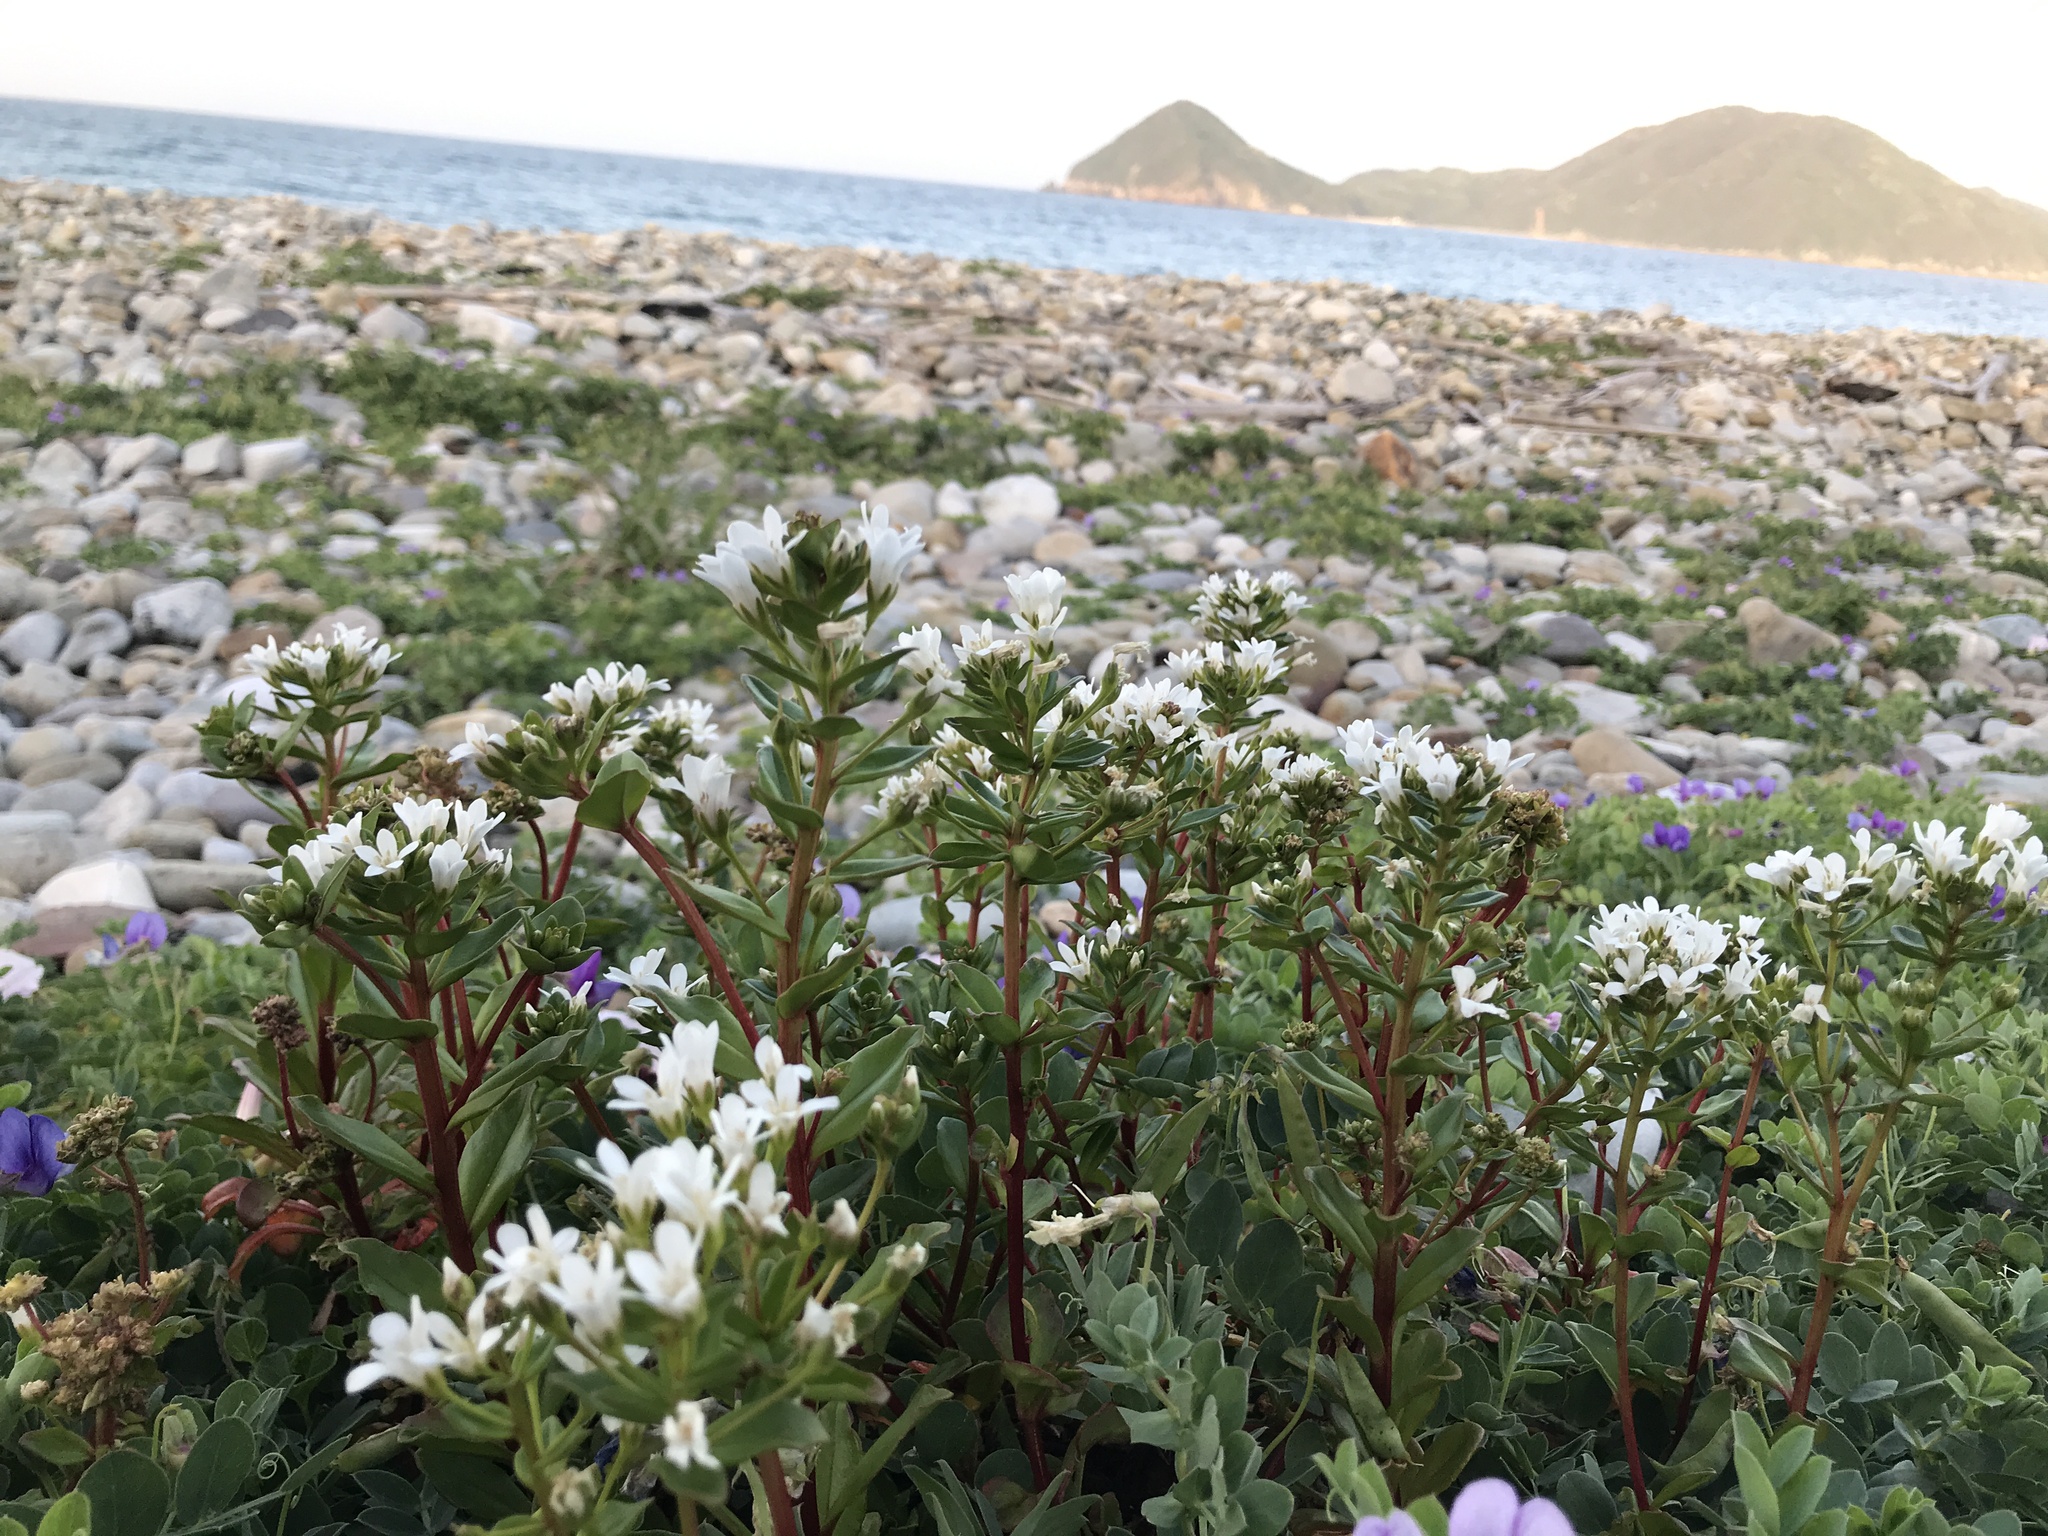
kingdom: Plantae
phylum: Tracheophyta
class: Magnoliopsida
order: Ericales
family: Primulaceae
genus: Lysimachia
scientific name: Lysimachia mauritiana
